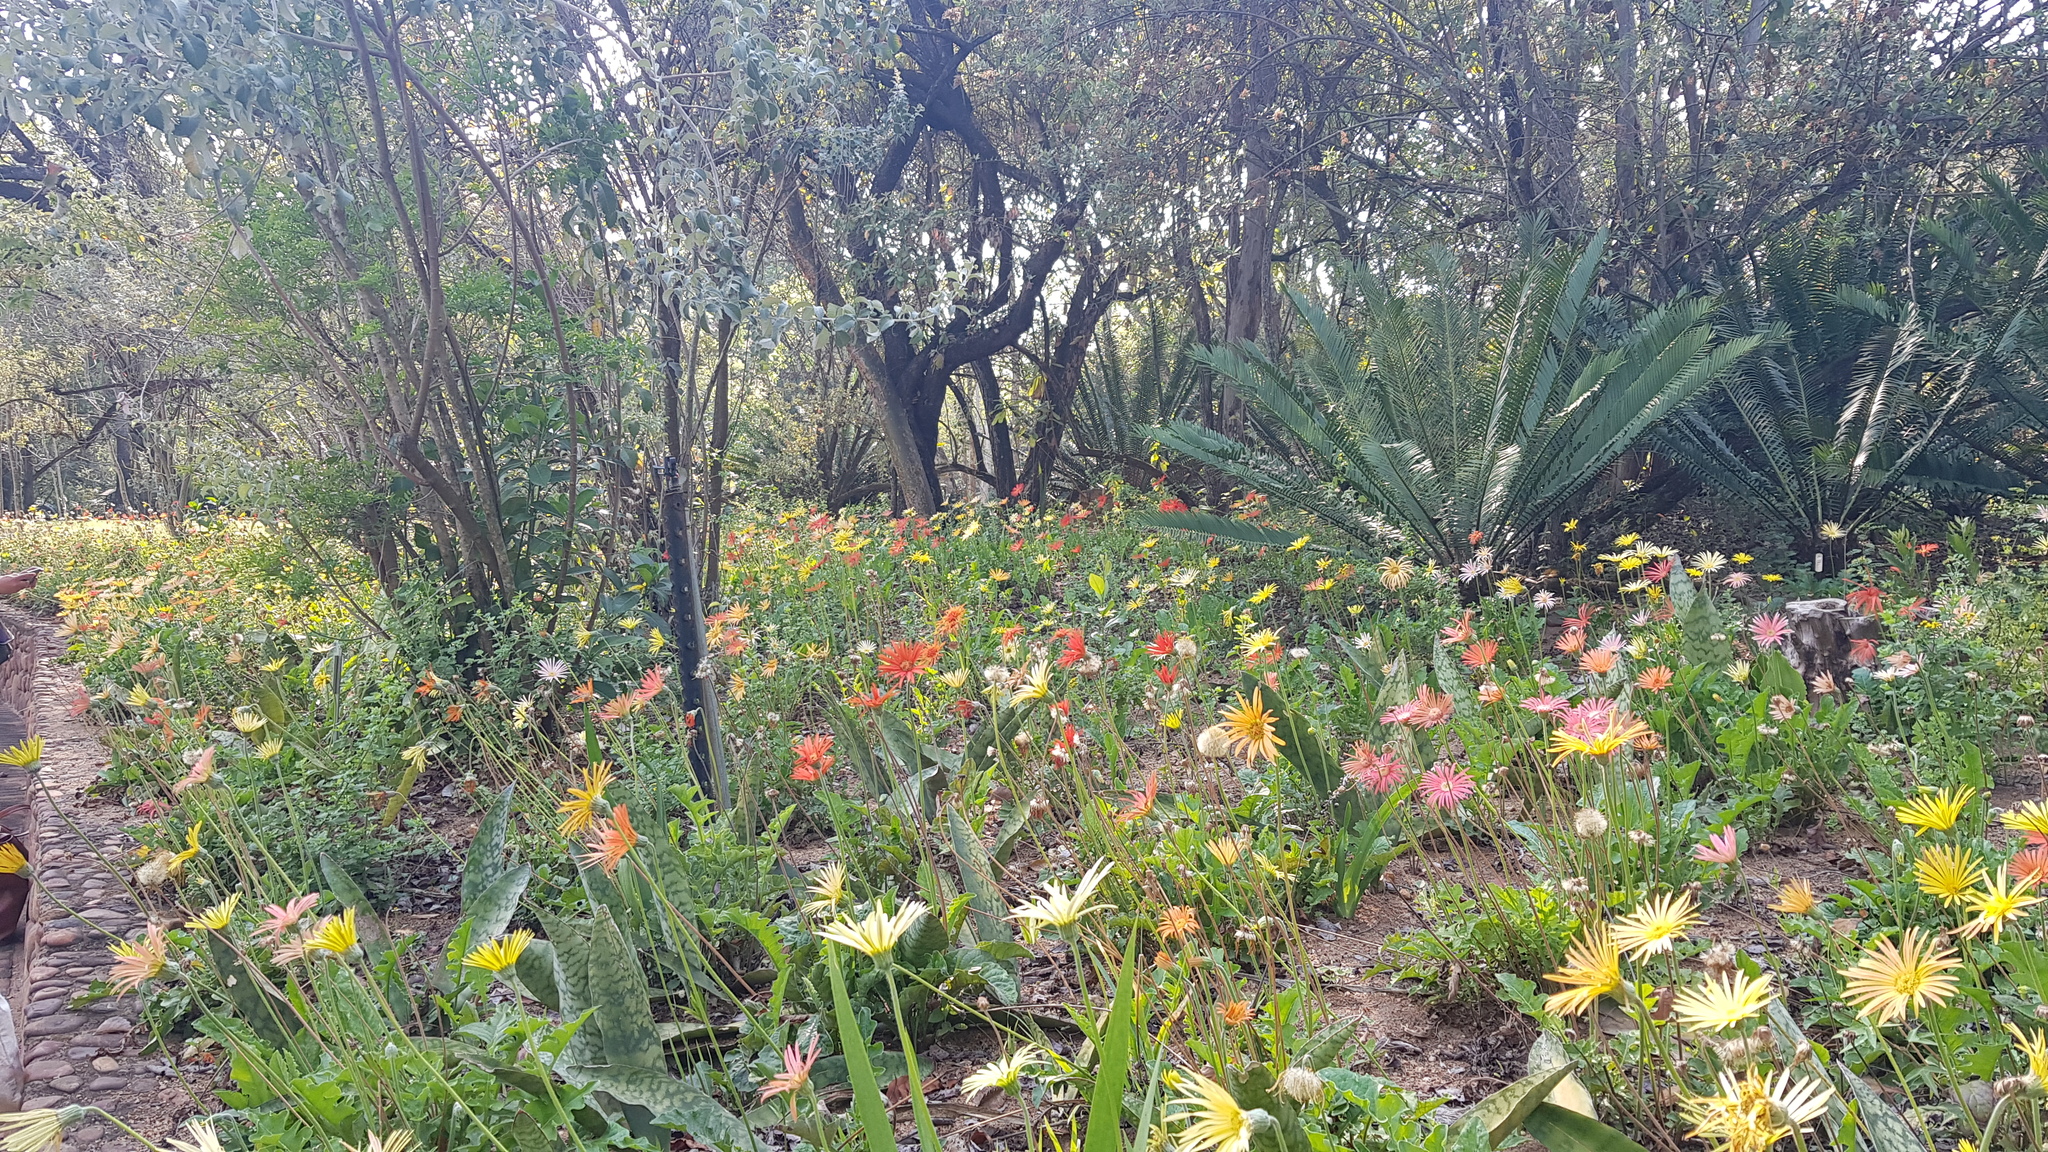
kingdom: Plantae
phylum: Tracheophyta
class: Magnoliopsida
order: Asterales
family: Asteraceae
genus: Gerbera
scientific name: Gerbera jamesonii
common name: African daisy
